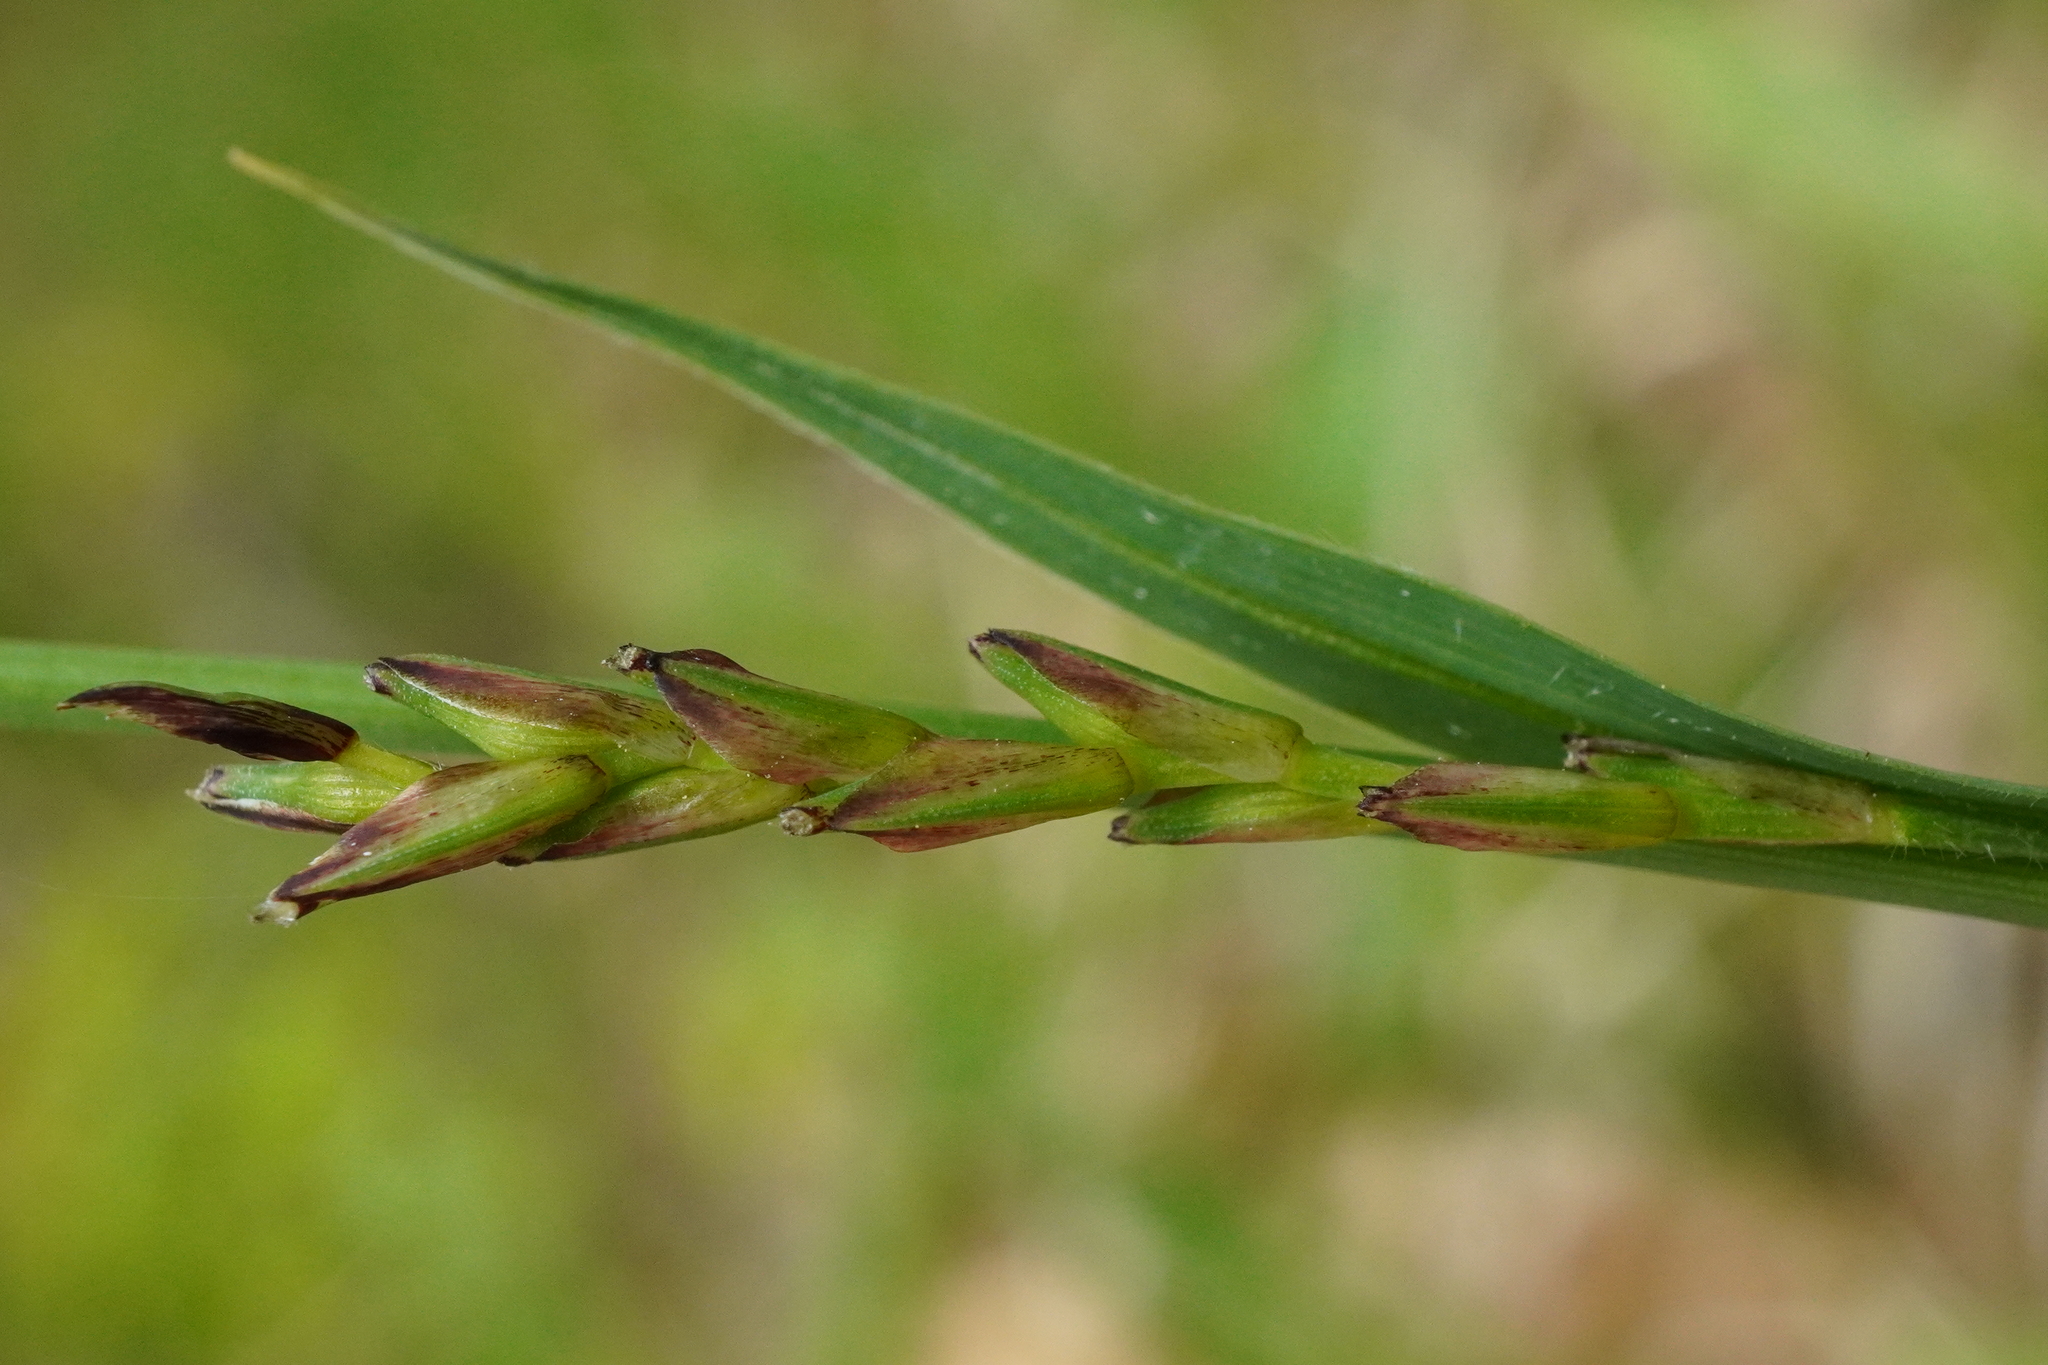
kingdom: Plantae
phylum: Tracheophyta
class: Liliopsida
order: Poales
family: Cyperaceae
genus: Carex
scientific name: Carex pilosa
